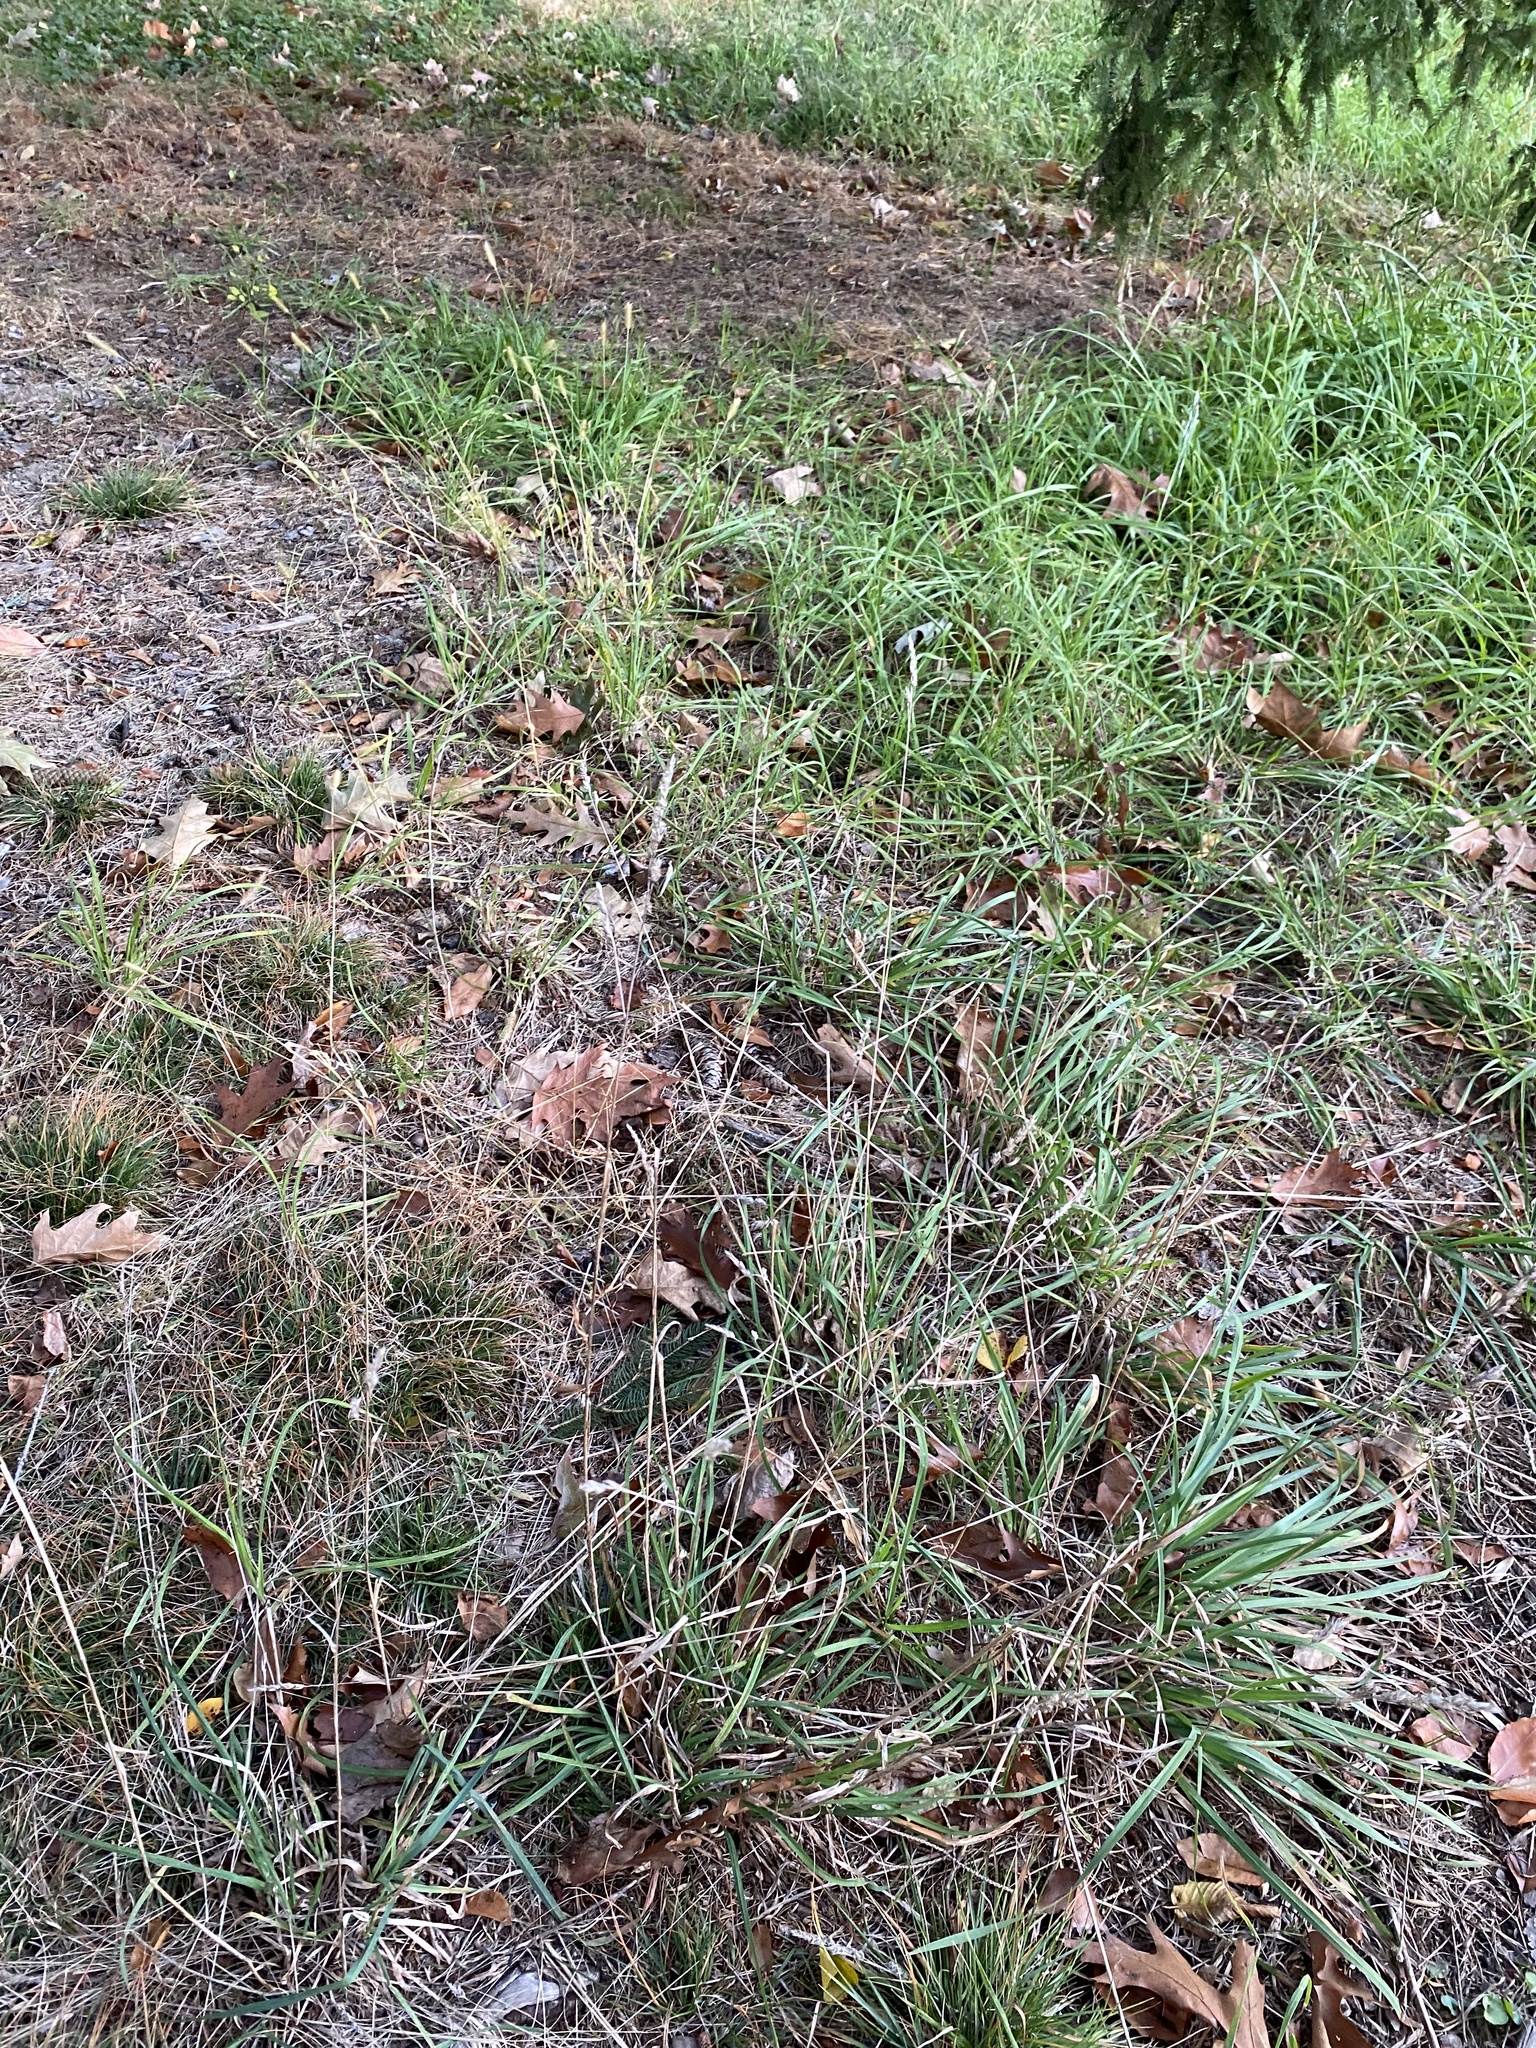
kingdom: Plantae
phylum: Tracheophyta
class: Liliopsida
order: Poales
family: Poaceae
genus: Dactylis
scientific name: Dactylis glomerata
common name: Orchardgrass
